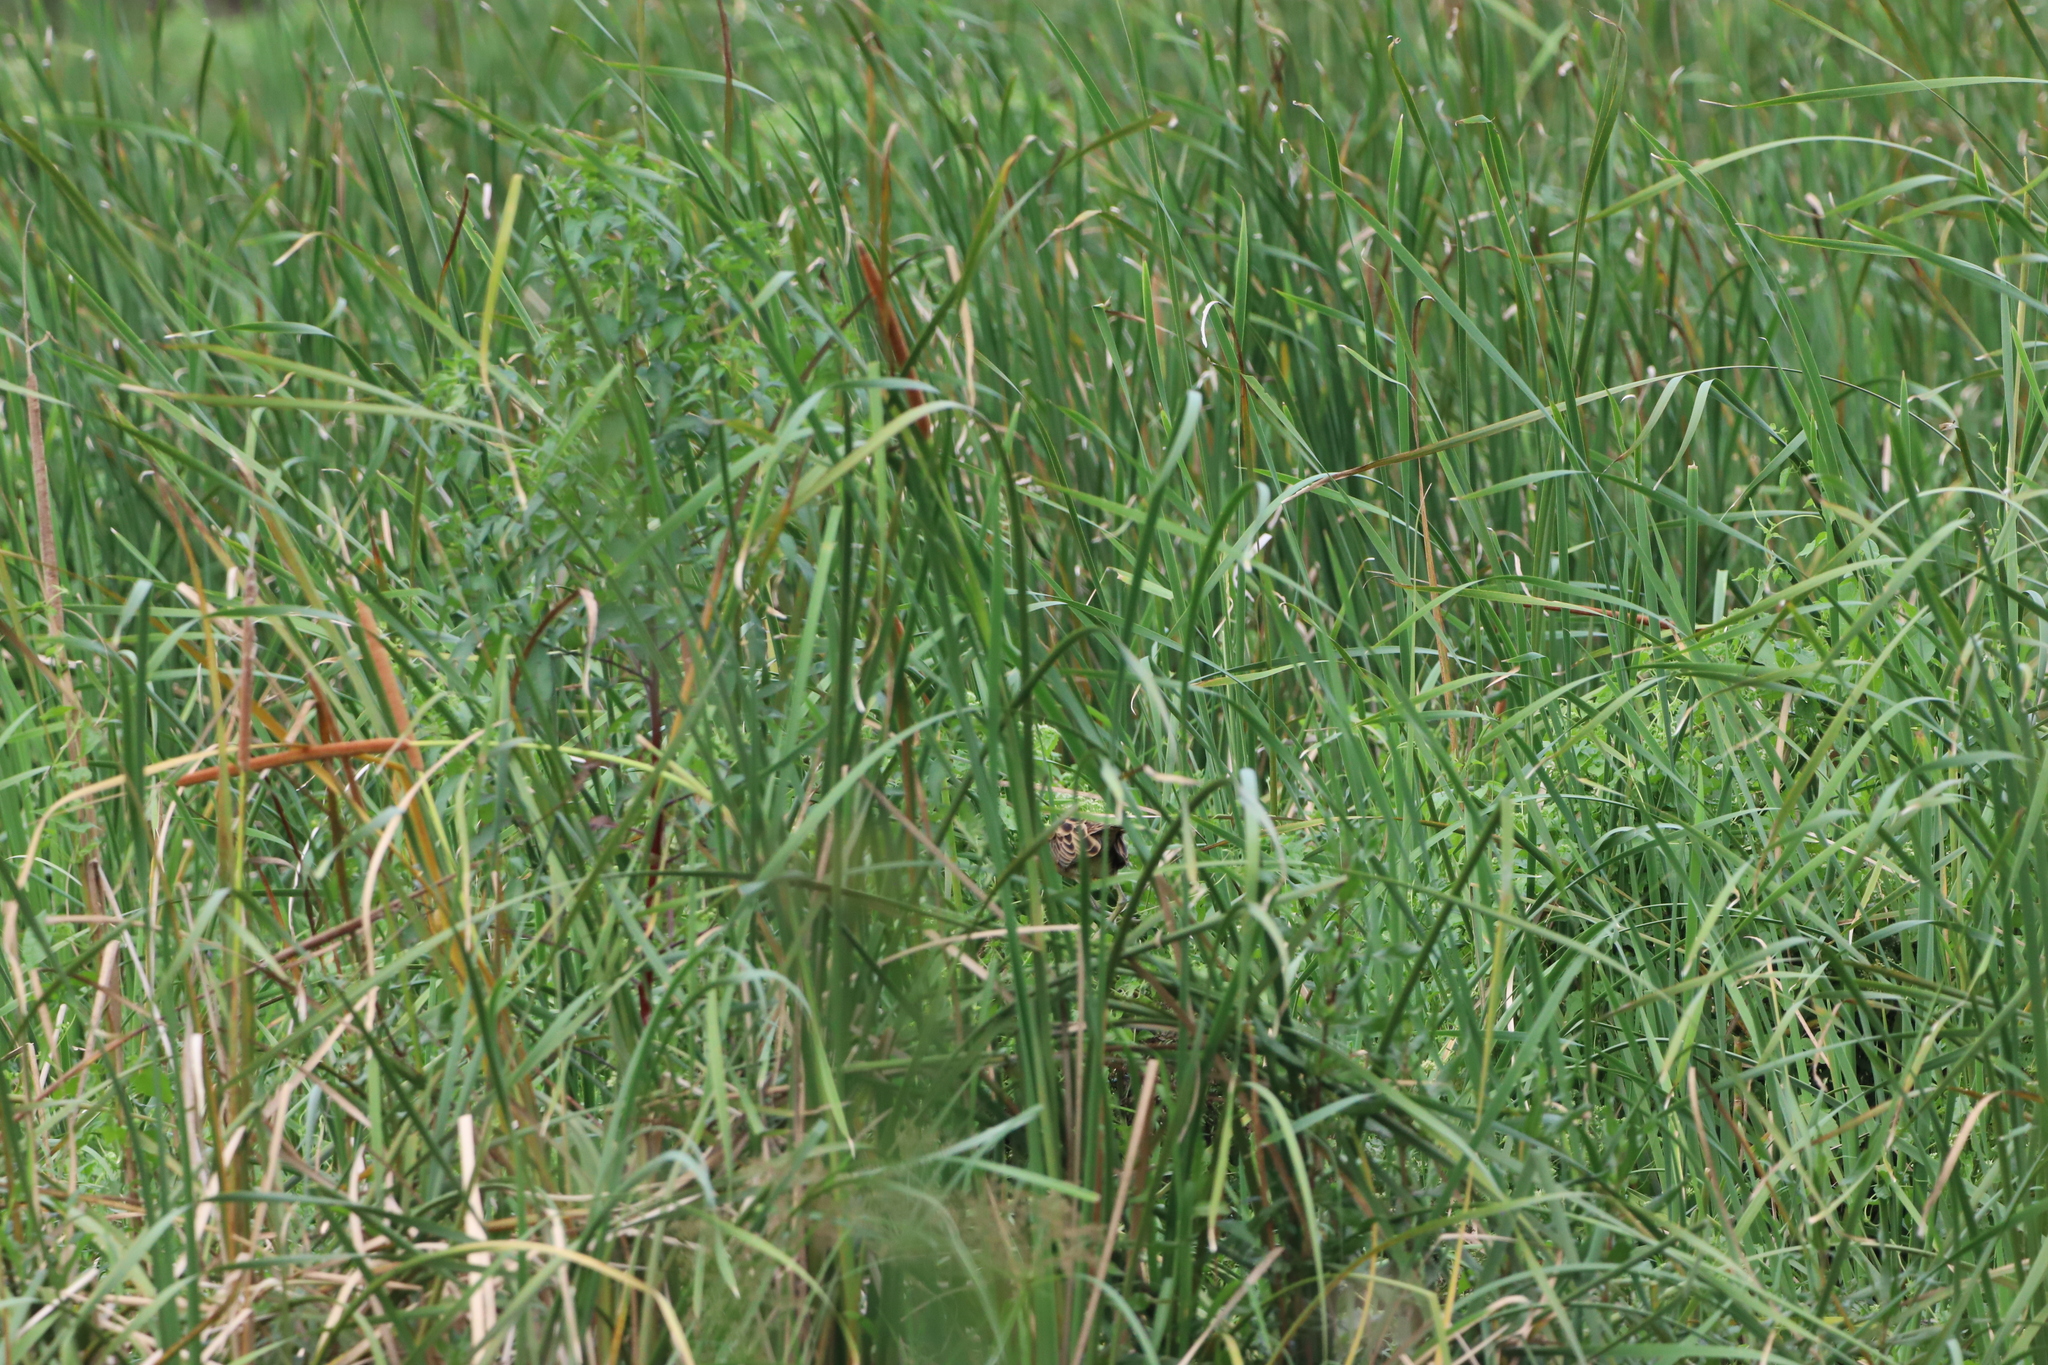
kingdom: Animalia
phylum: Chordata
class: Aves
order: Gruiformes
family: Rallidae
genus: Gallicrex
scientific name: Gallicrex cinerea
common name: Watercock
